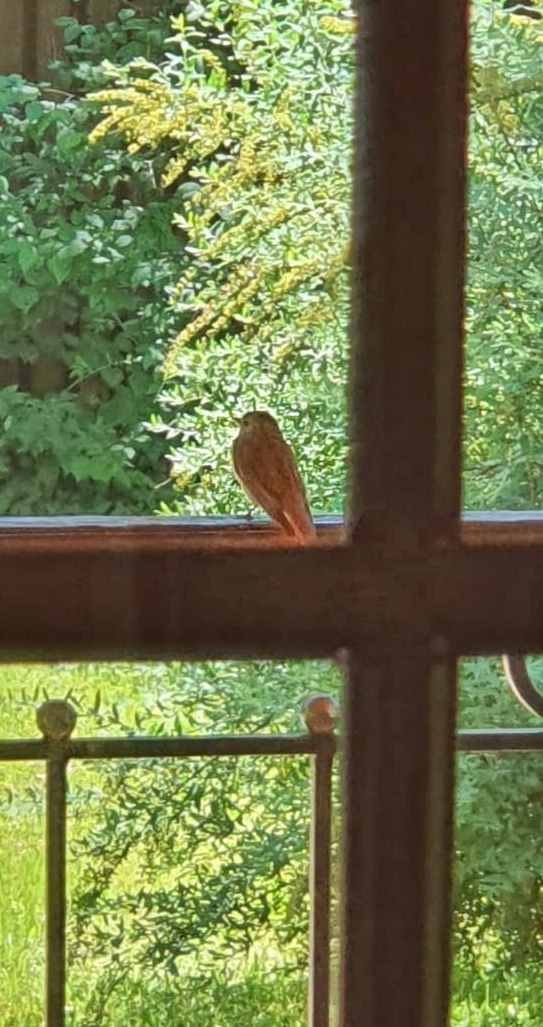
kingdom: Animalia
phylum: Chordata
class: Aves
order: Passeriformes
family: Muscicapidae
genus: Erithacus
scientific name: Erithacus rubecula
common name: European robin
